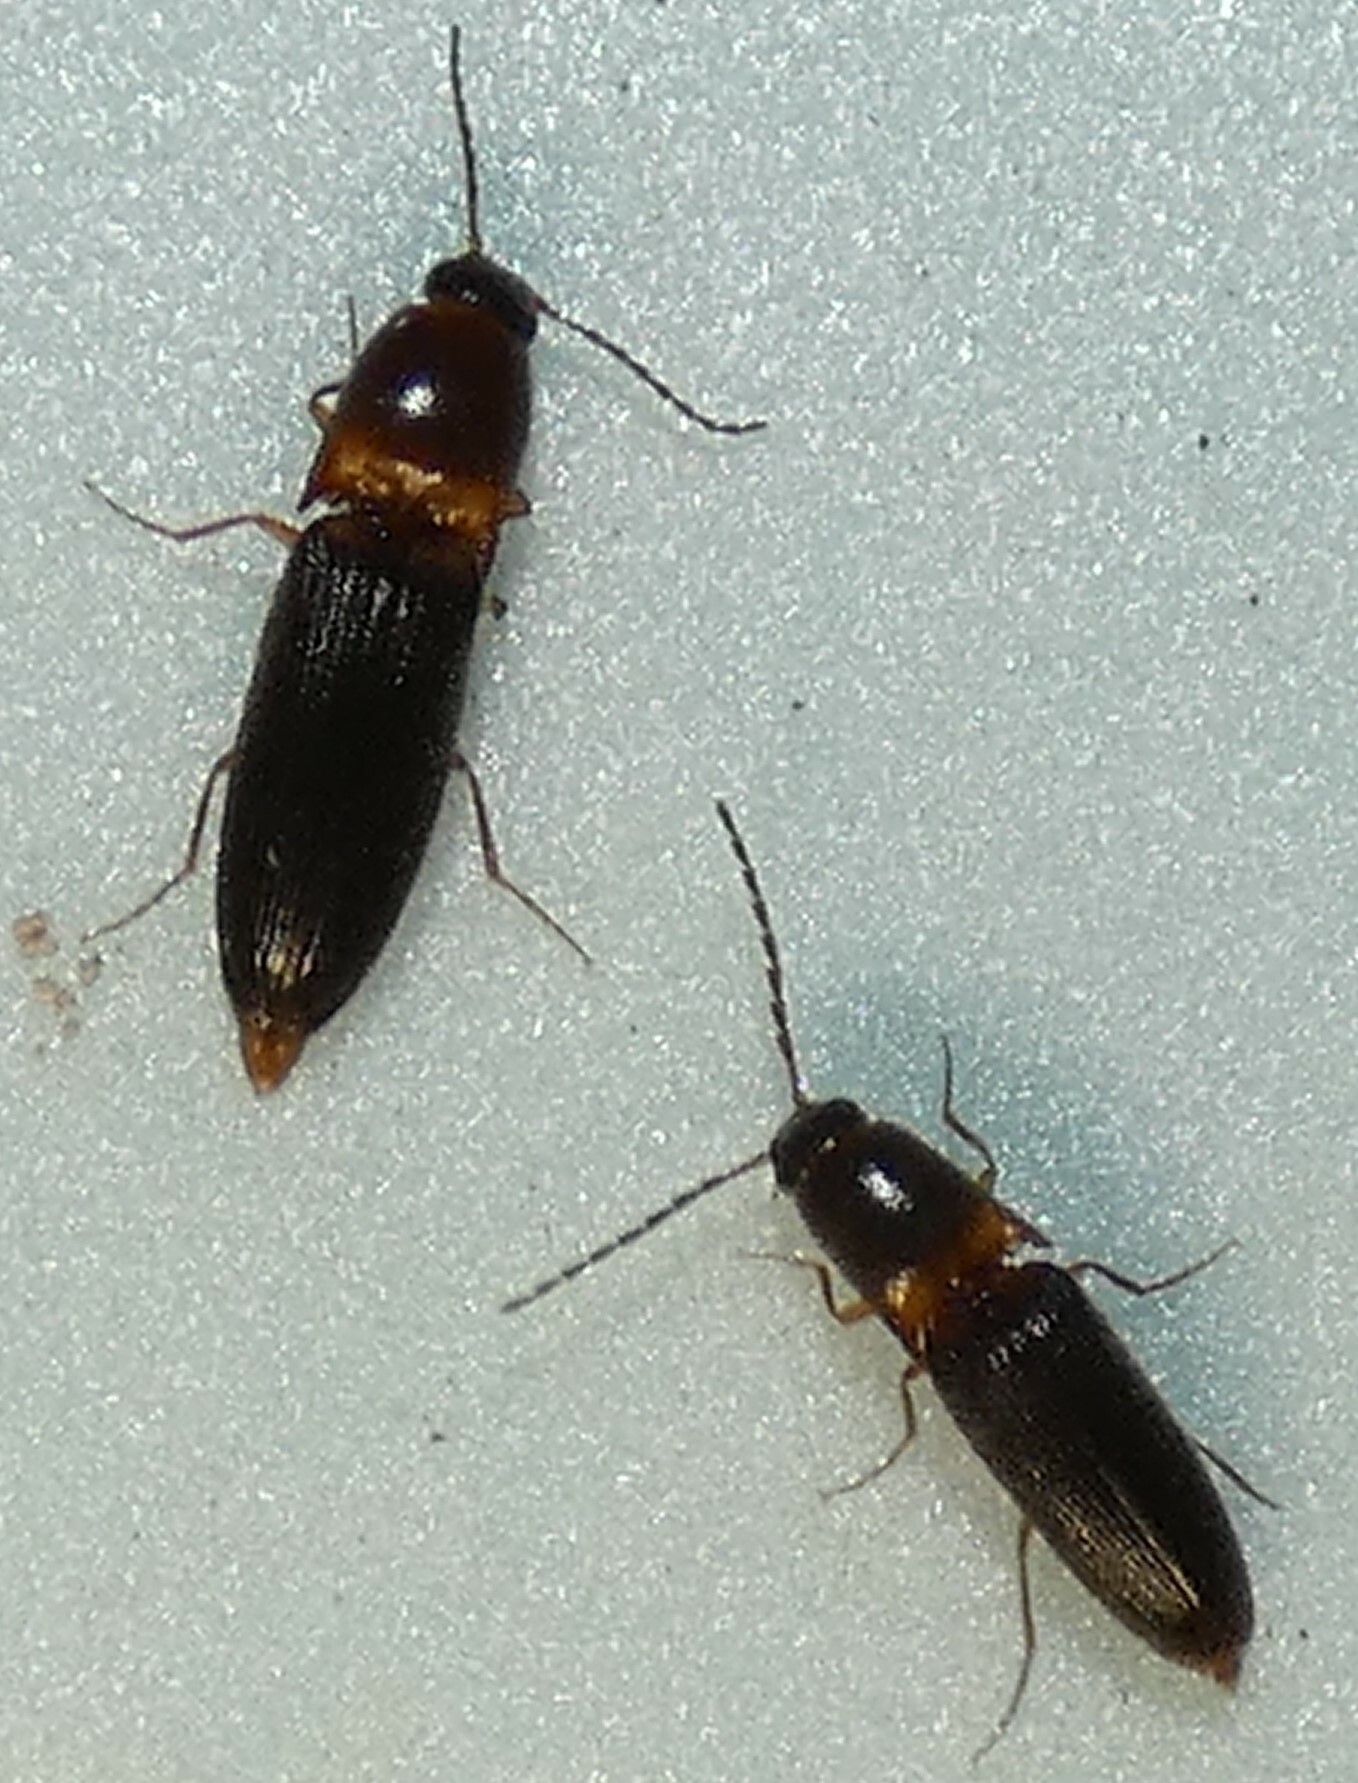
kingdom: Animalia
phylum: Arthropoda
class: Insecta
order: Coleoptera
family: Elateridae
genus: Megapenthes
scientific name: Megapenthes
